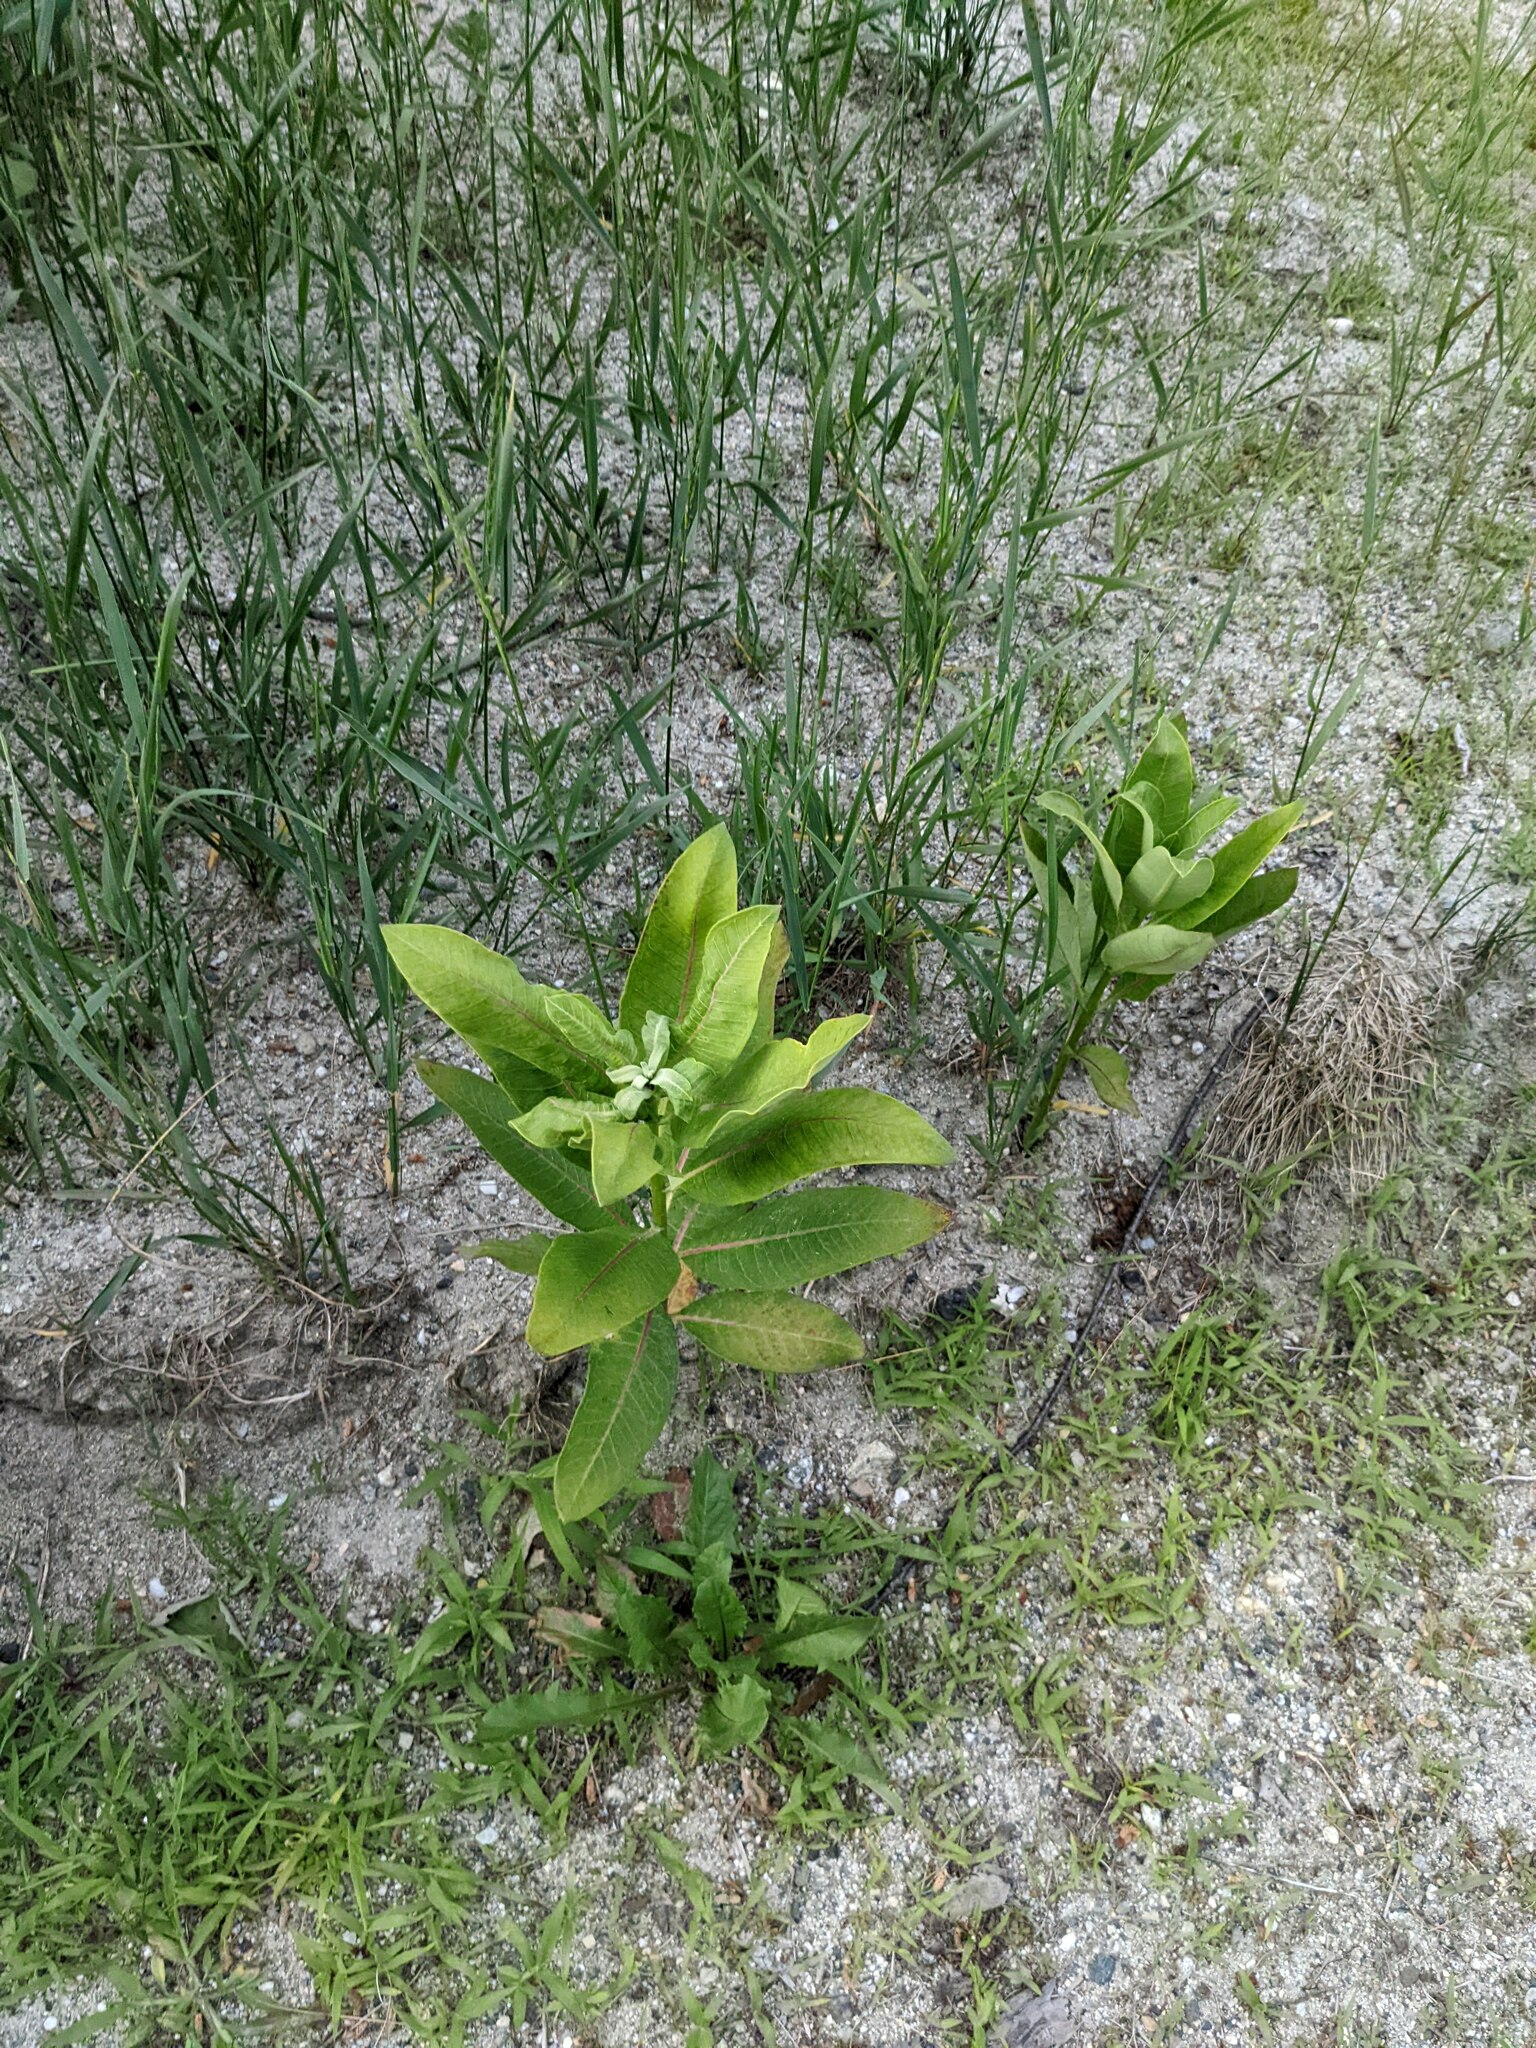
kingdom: Plantae
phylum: Tracheophyta
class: Magnoliopsida
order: Gentianales
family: Apocynaceae
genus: Asclepias
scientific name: Asclepias syriaca
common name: Common milkweed
